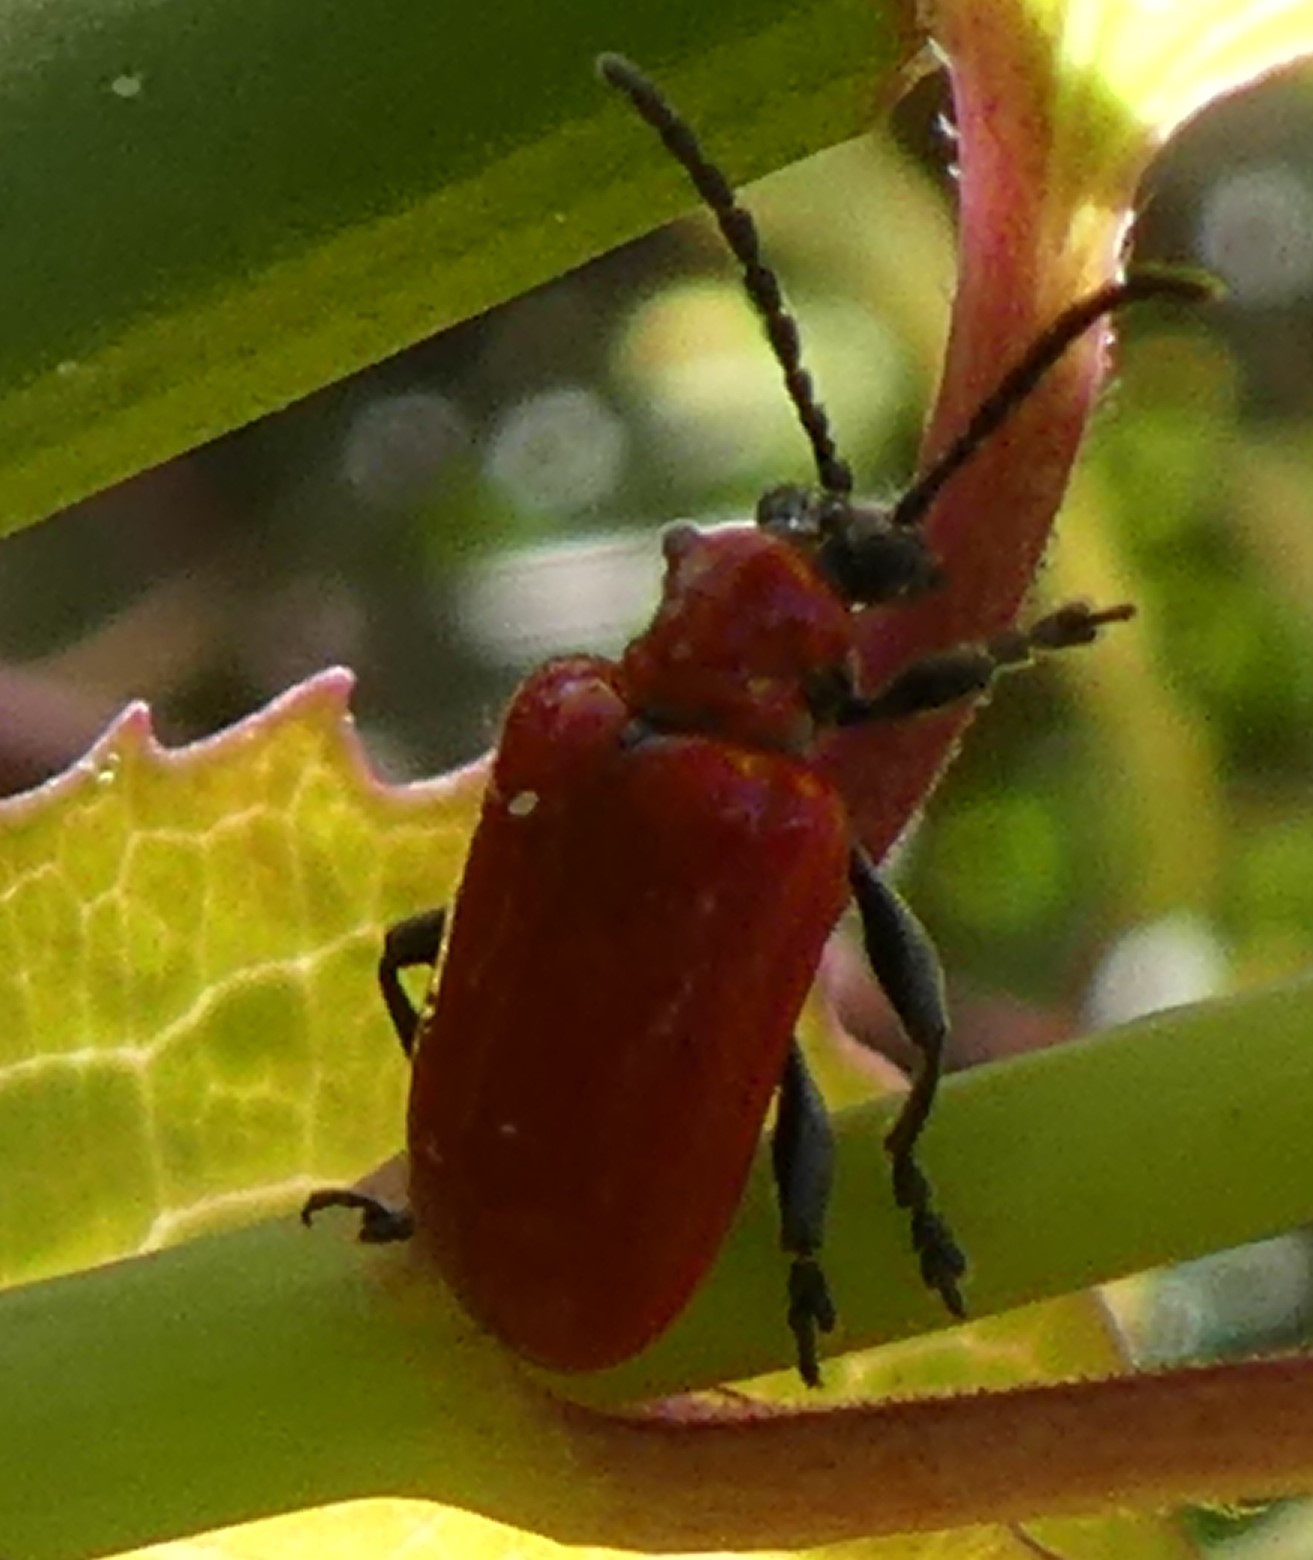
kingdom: Animalia
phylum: Arthropoda
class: Insecta
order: Coleoptera
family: Chrysomelidae
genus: Lilioceris
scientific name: Lilioceris lilii
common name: Lily beetle
